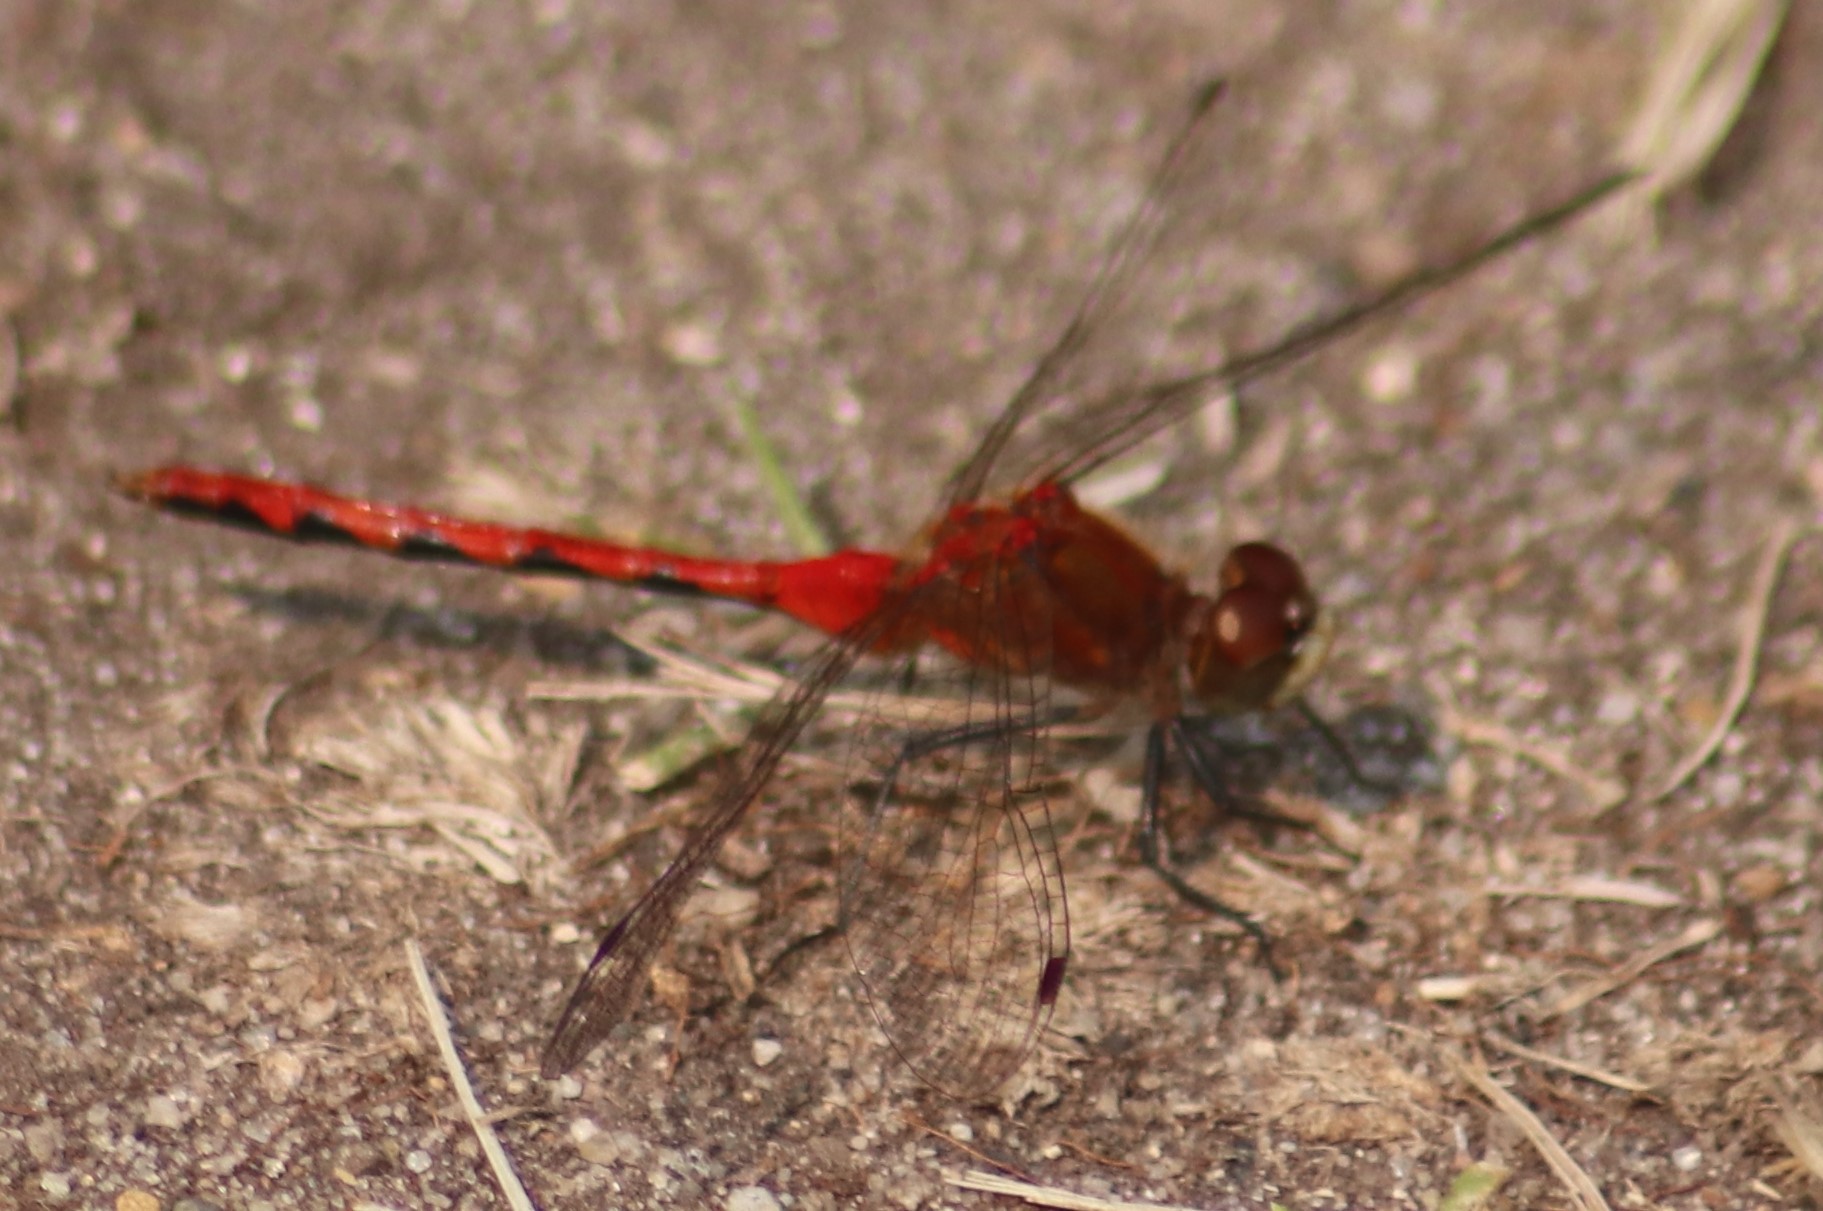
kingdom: Animalia
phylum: Arthropoda
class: Insecta
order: Odonata
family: Libellulidae
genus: Sympetrum
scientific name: Sympetrum obtrusum
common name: White-faced meadowhawk
